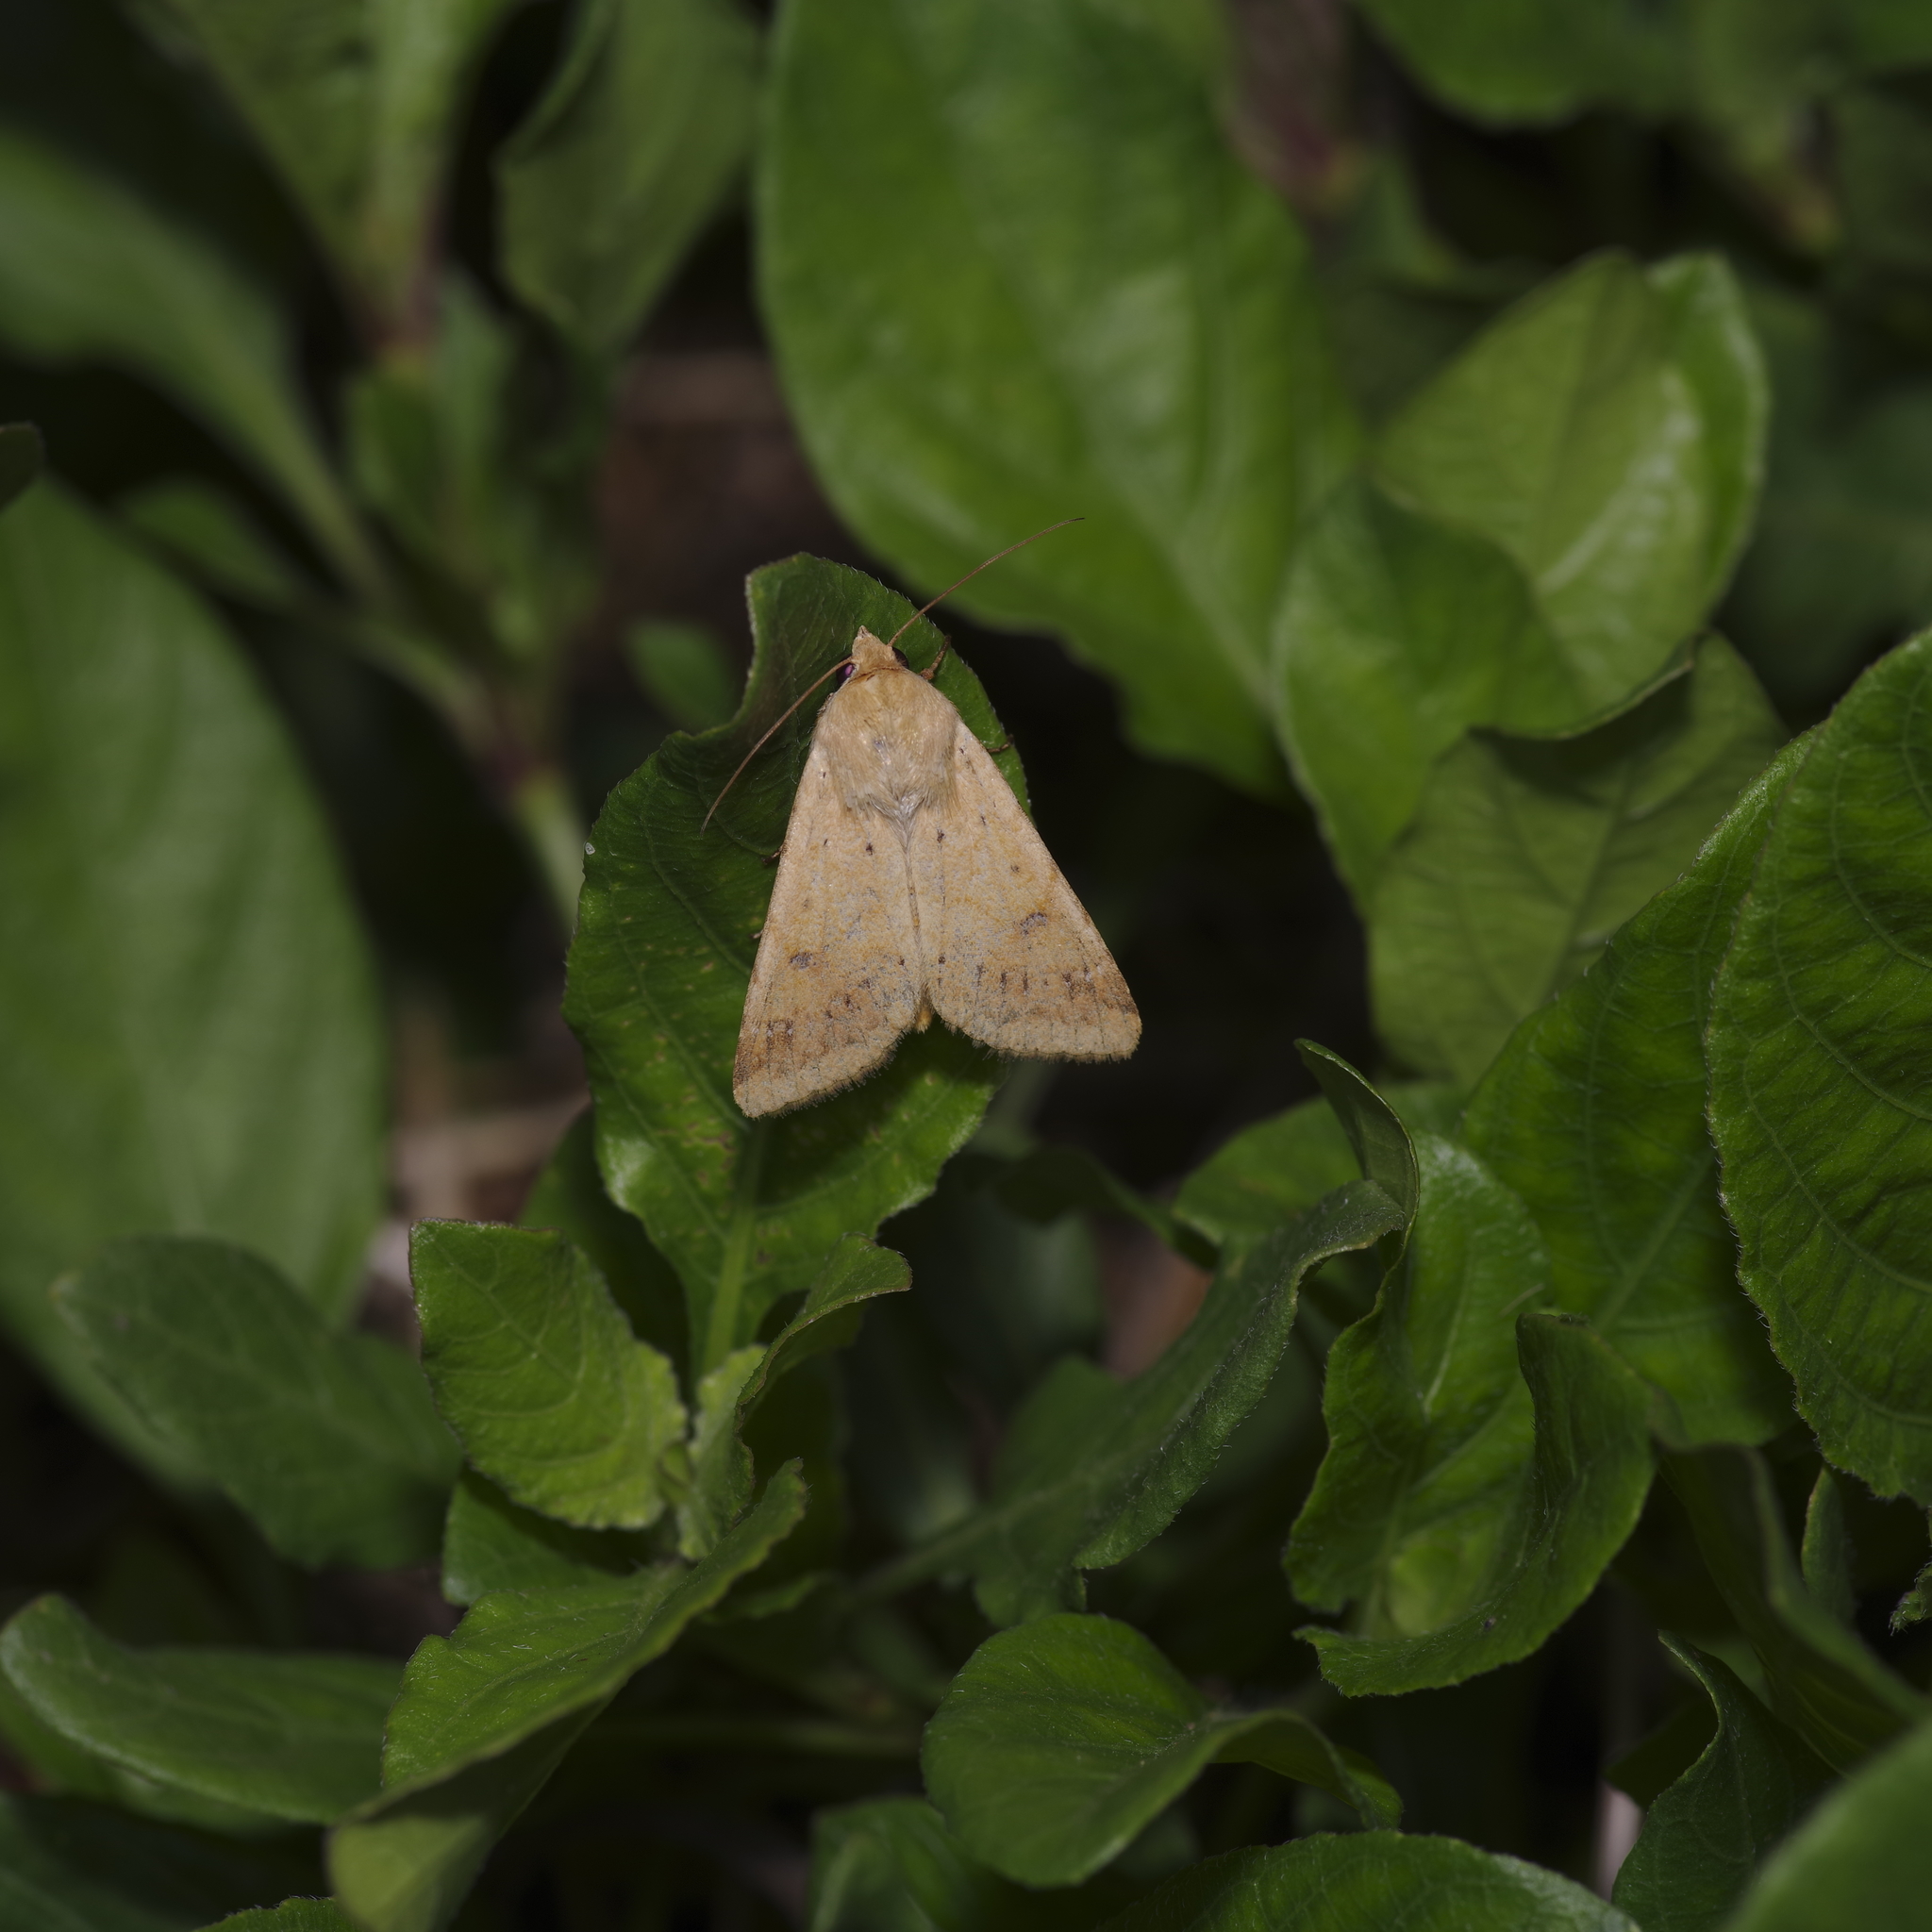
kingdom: Animalia
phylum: Arthropoda
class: Insecta
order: Lepidoptera
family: Noctuidae
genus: Helicoverpa
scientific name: Helicoverpa zea
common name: Bollworm
